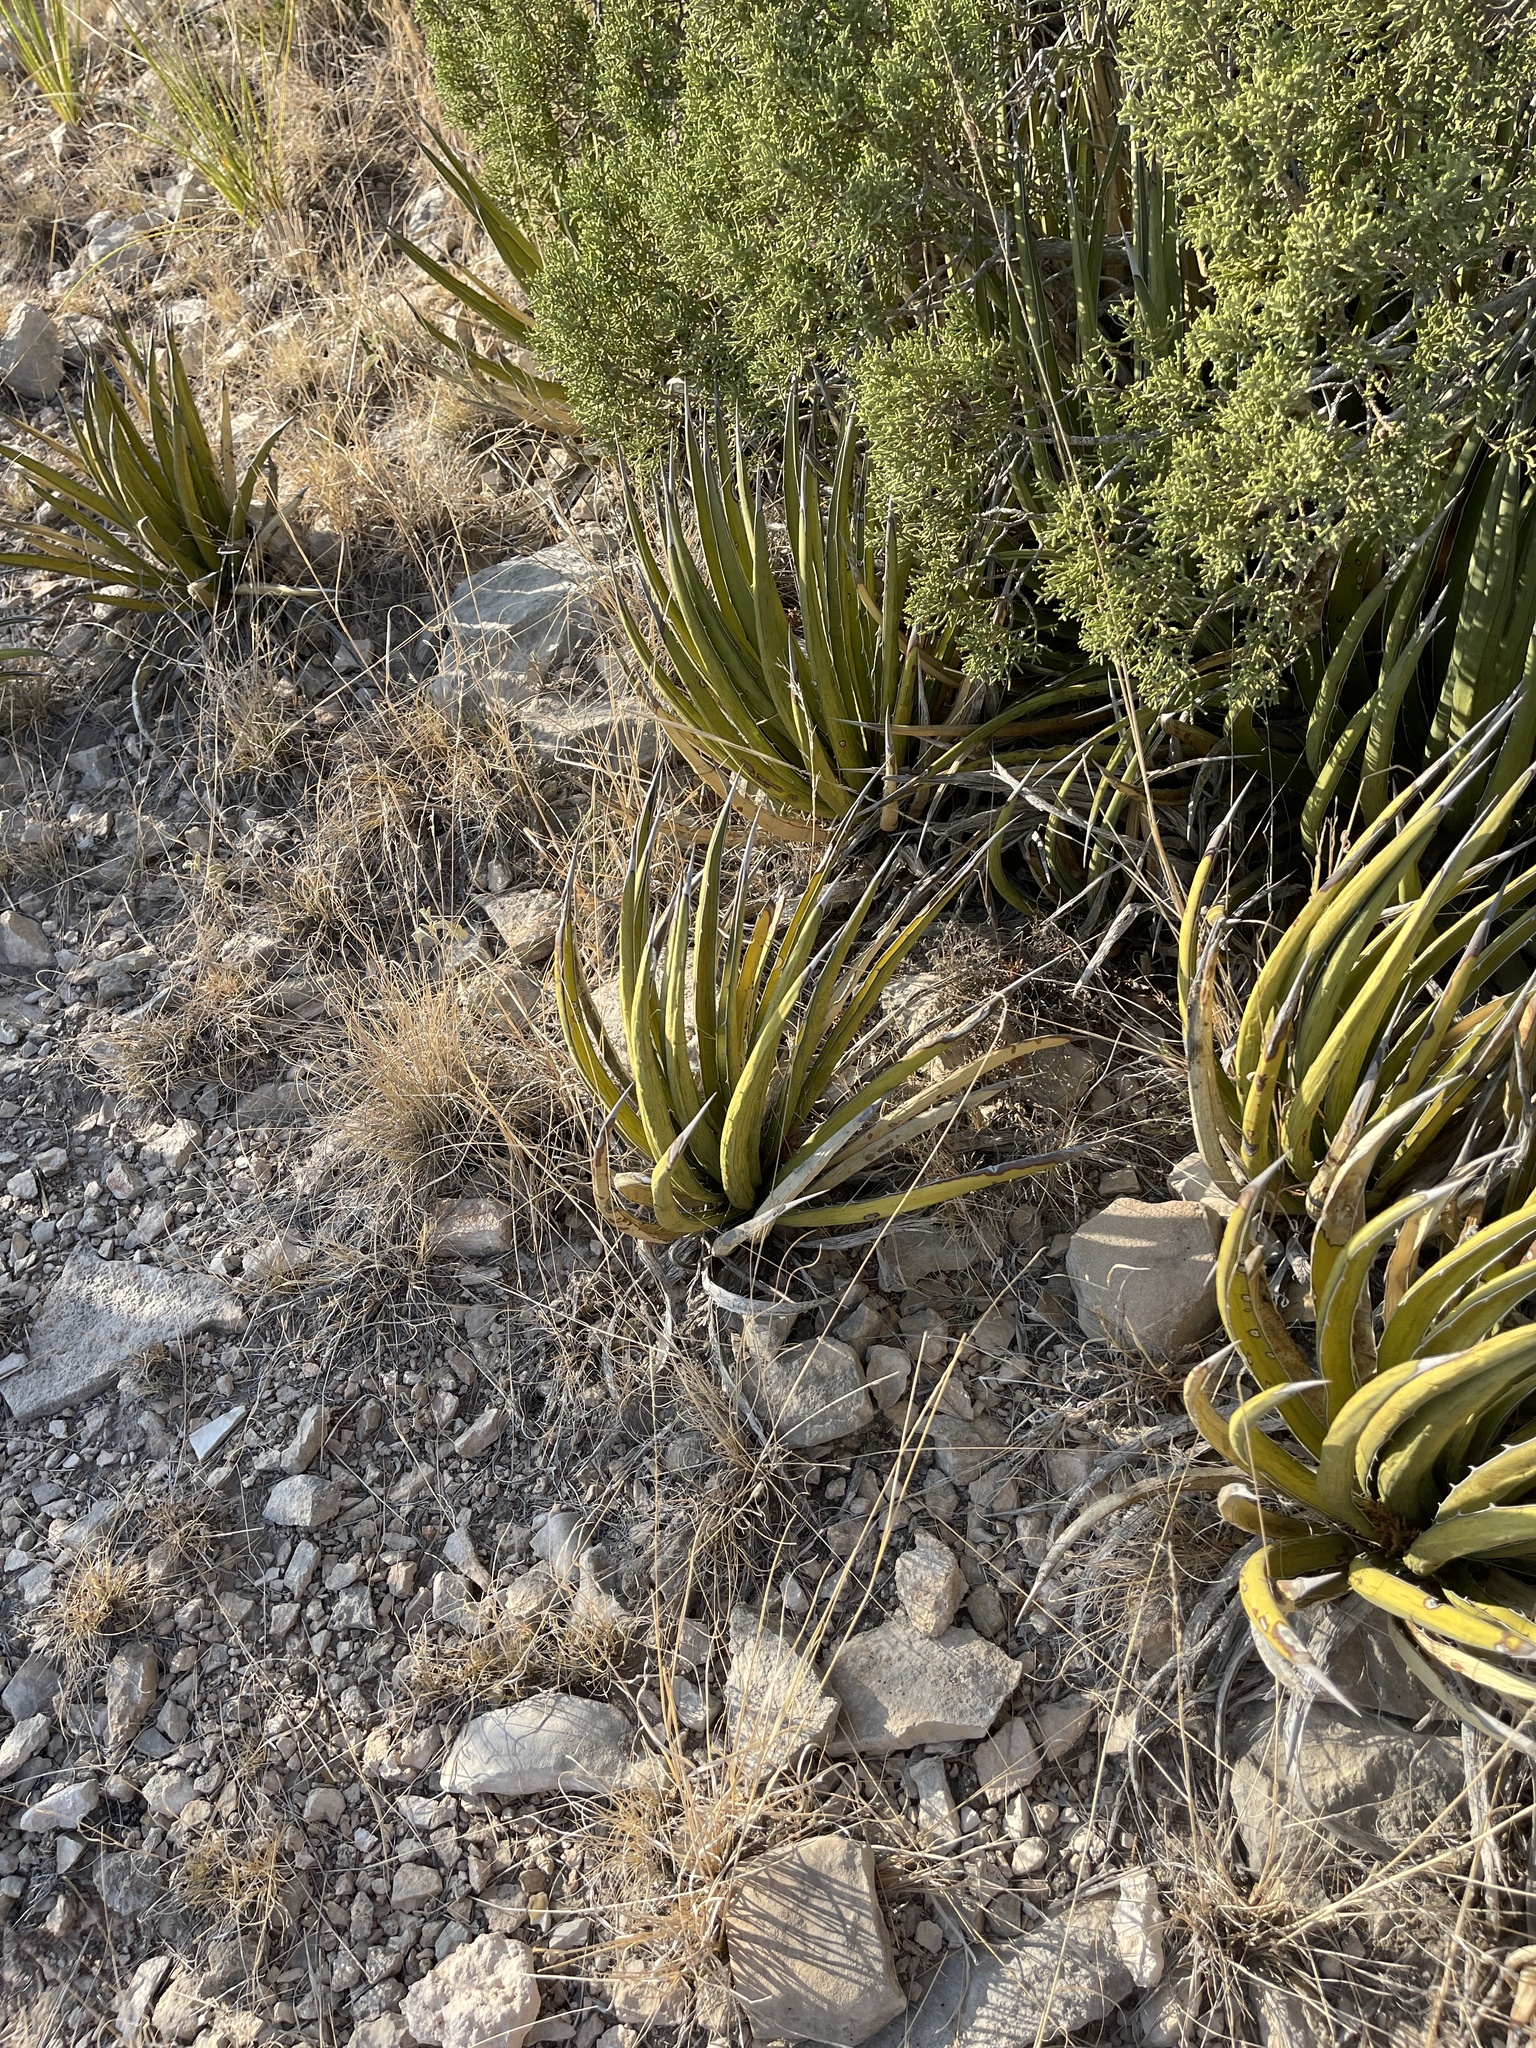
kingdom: Plantae
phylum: Tracheophyta
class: Liliopsida
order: Asparagales
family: Asparagaceae
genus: Agave
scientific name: Agave lechuguilla
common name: Lecheguilla agave
